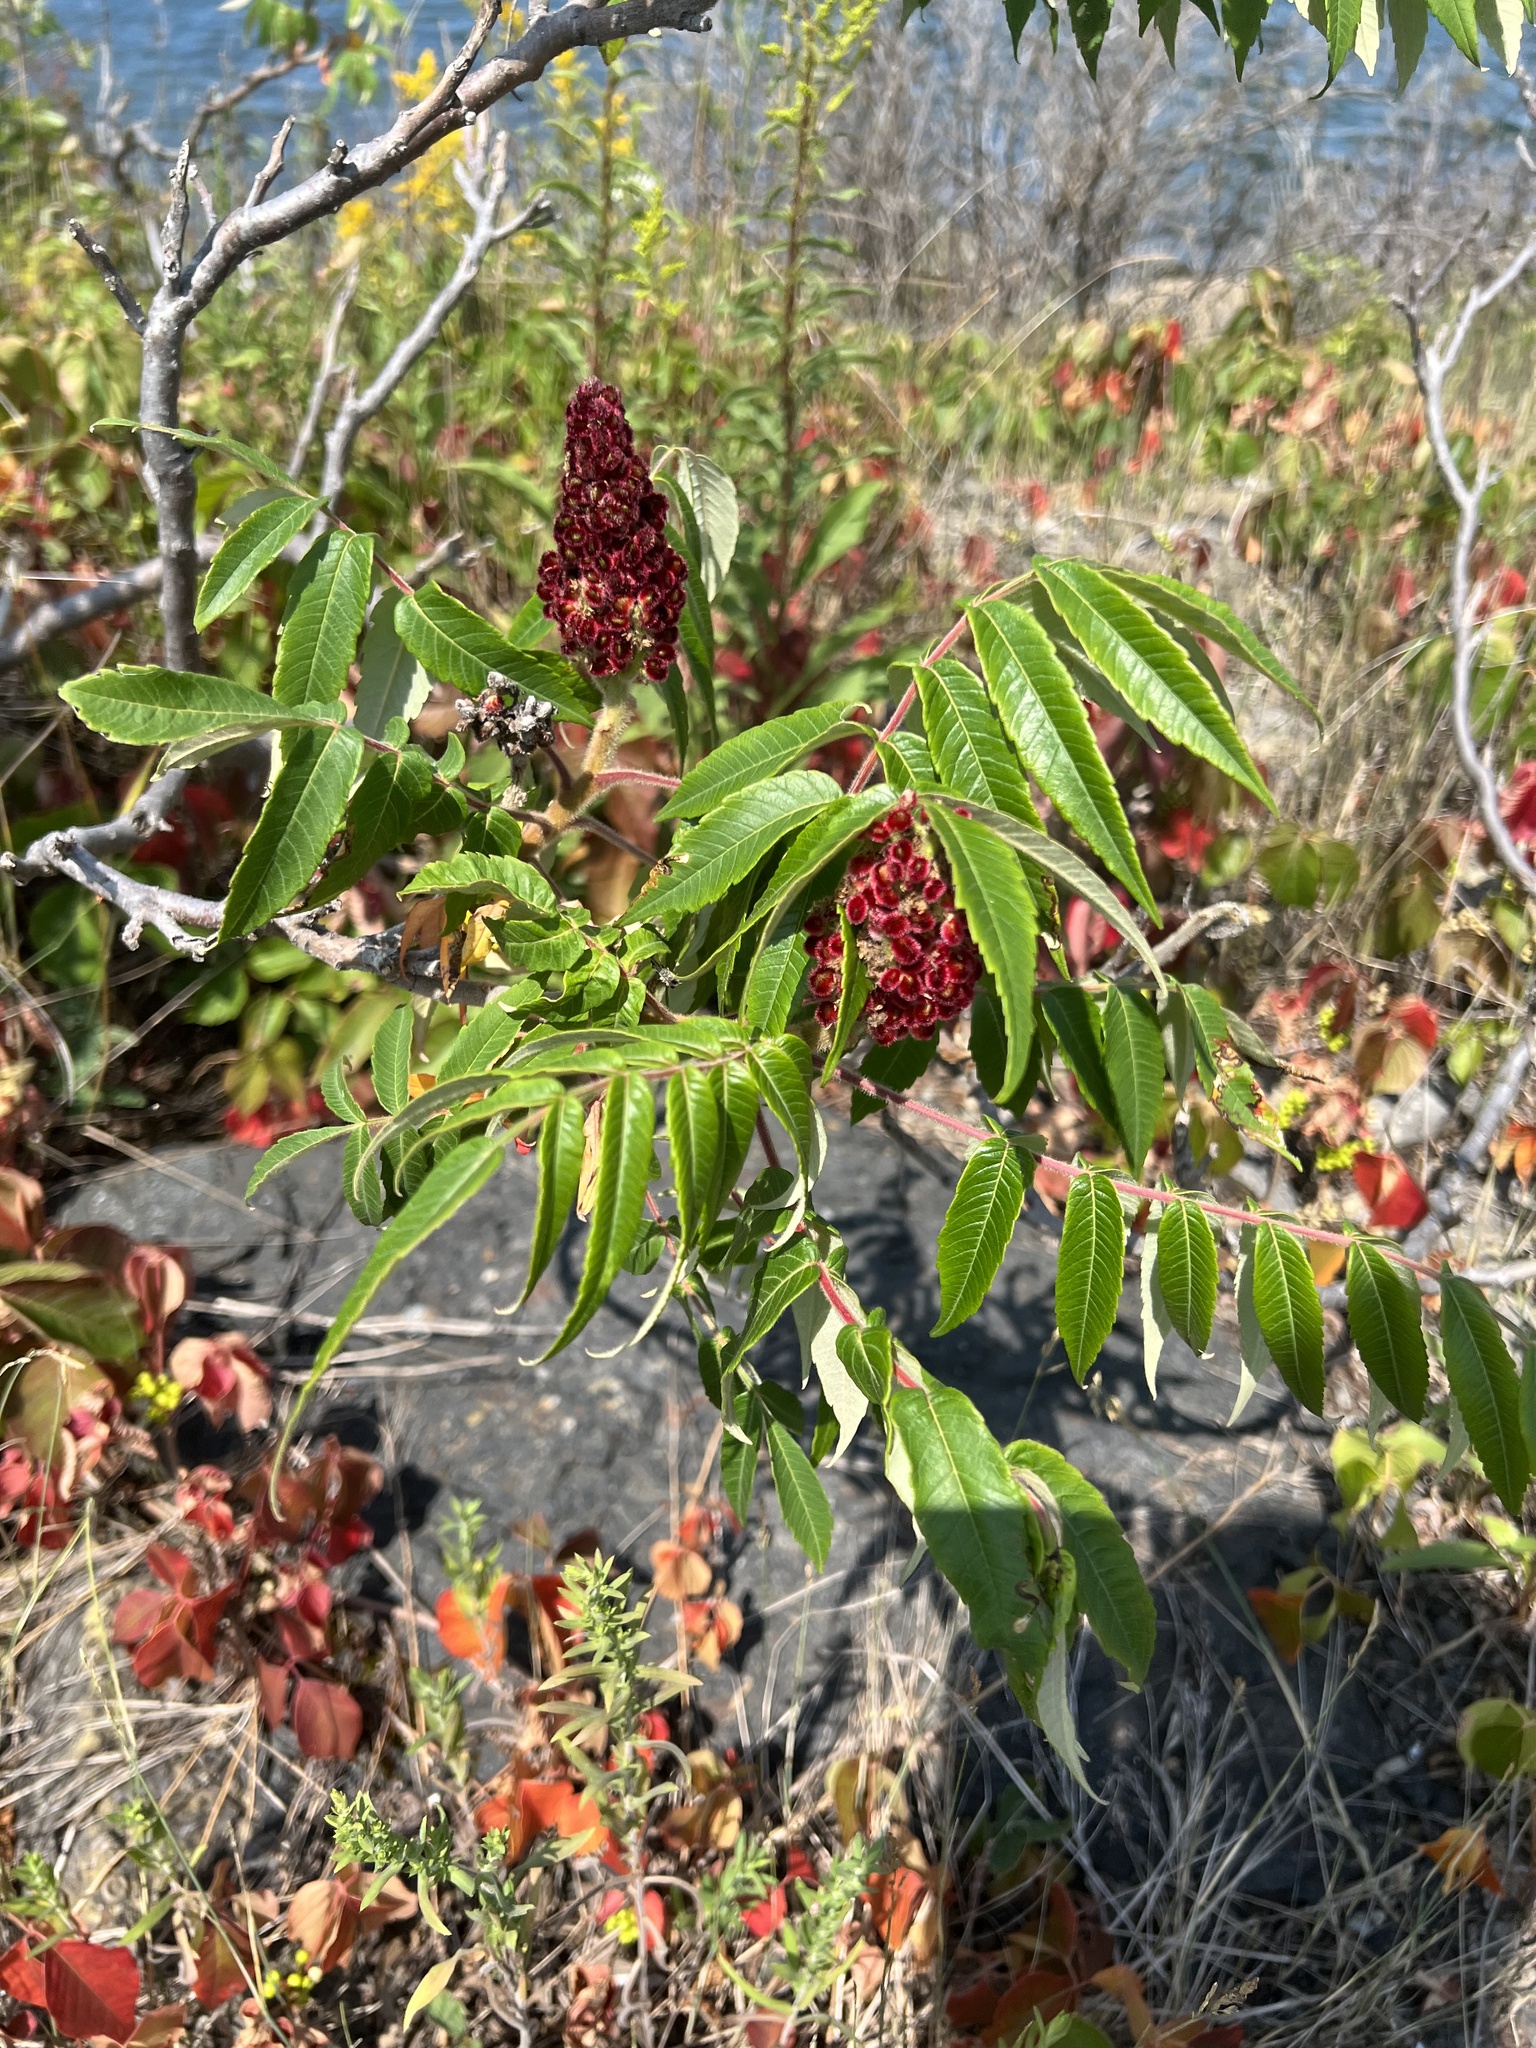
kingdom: Plantae
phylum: Tracheophyta
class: Magnoliopsida
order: Sapindales
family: Anacardiaceae
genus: Rhus
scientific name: Rhus typhina
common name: Staghorn sumac
